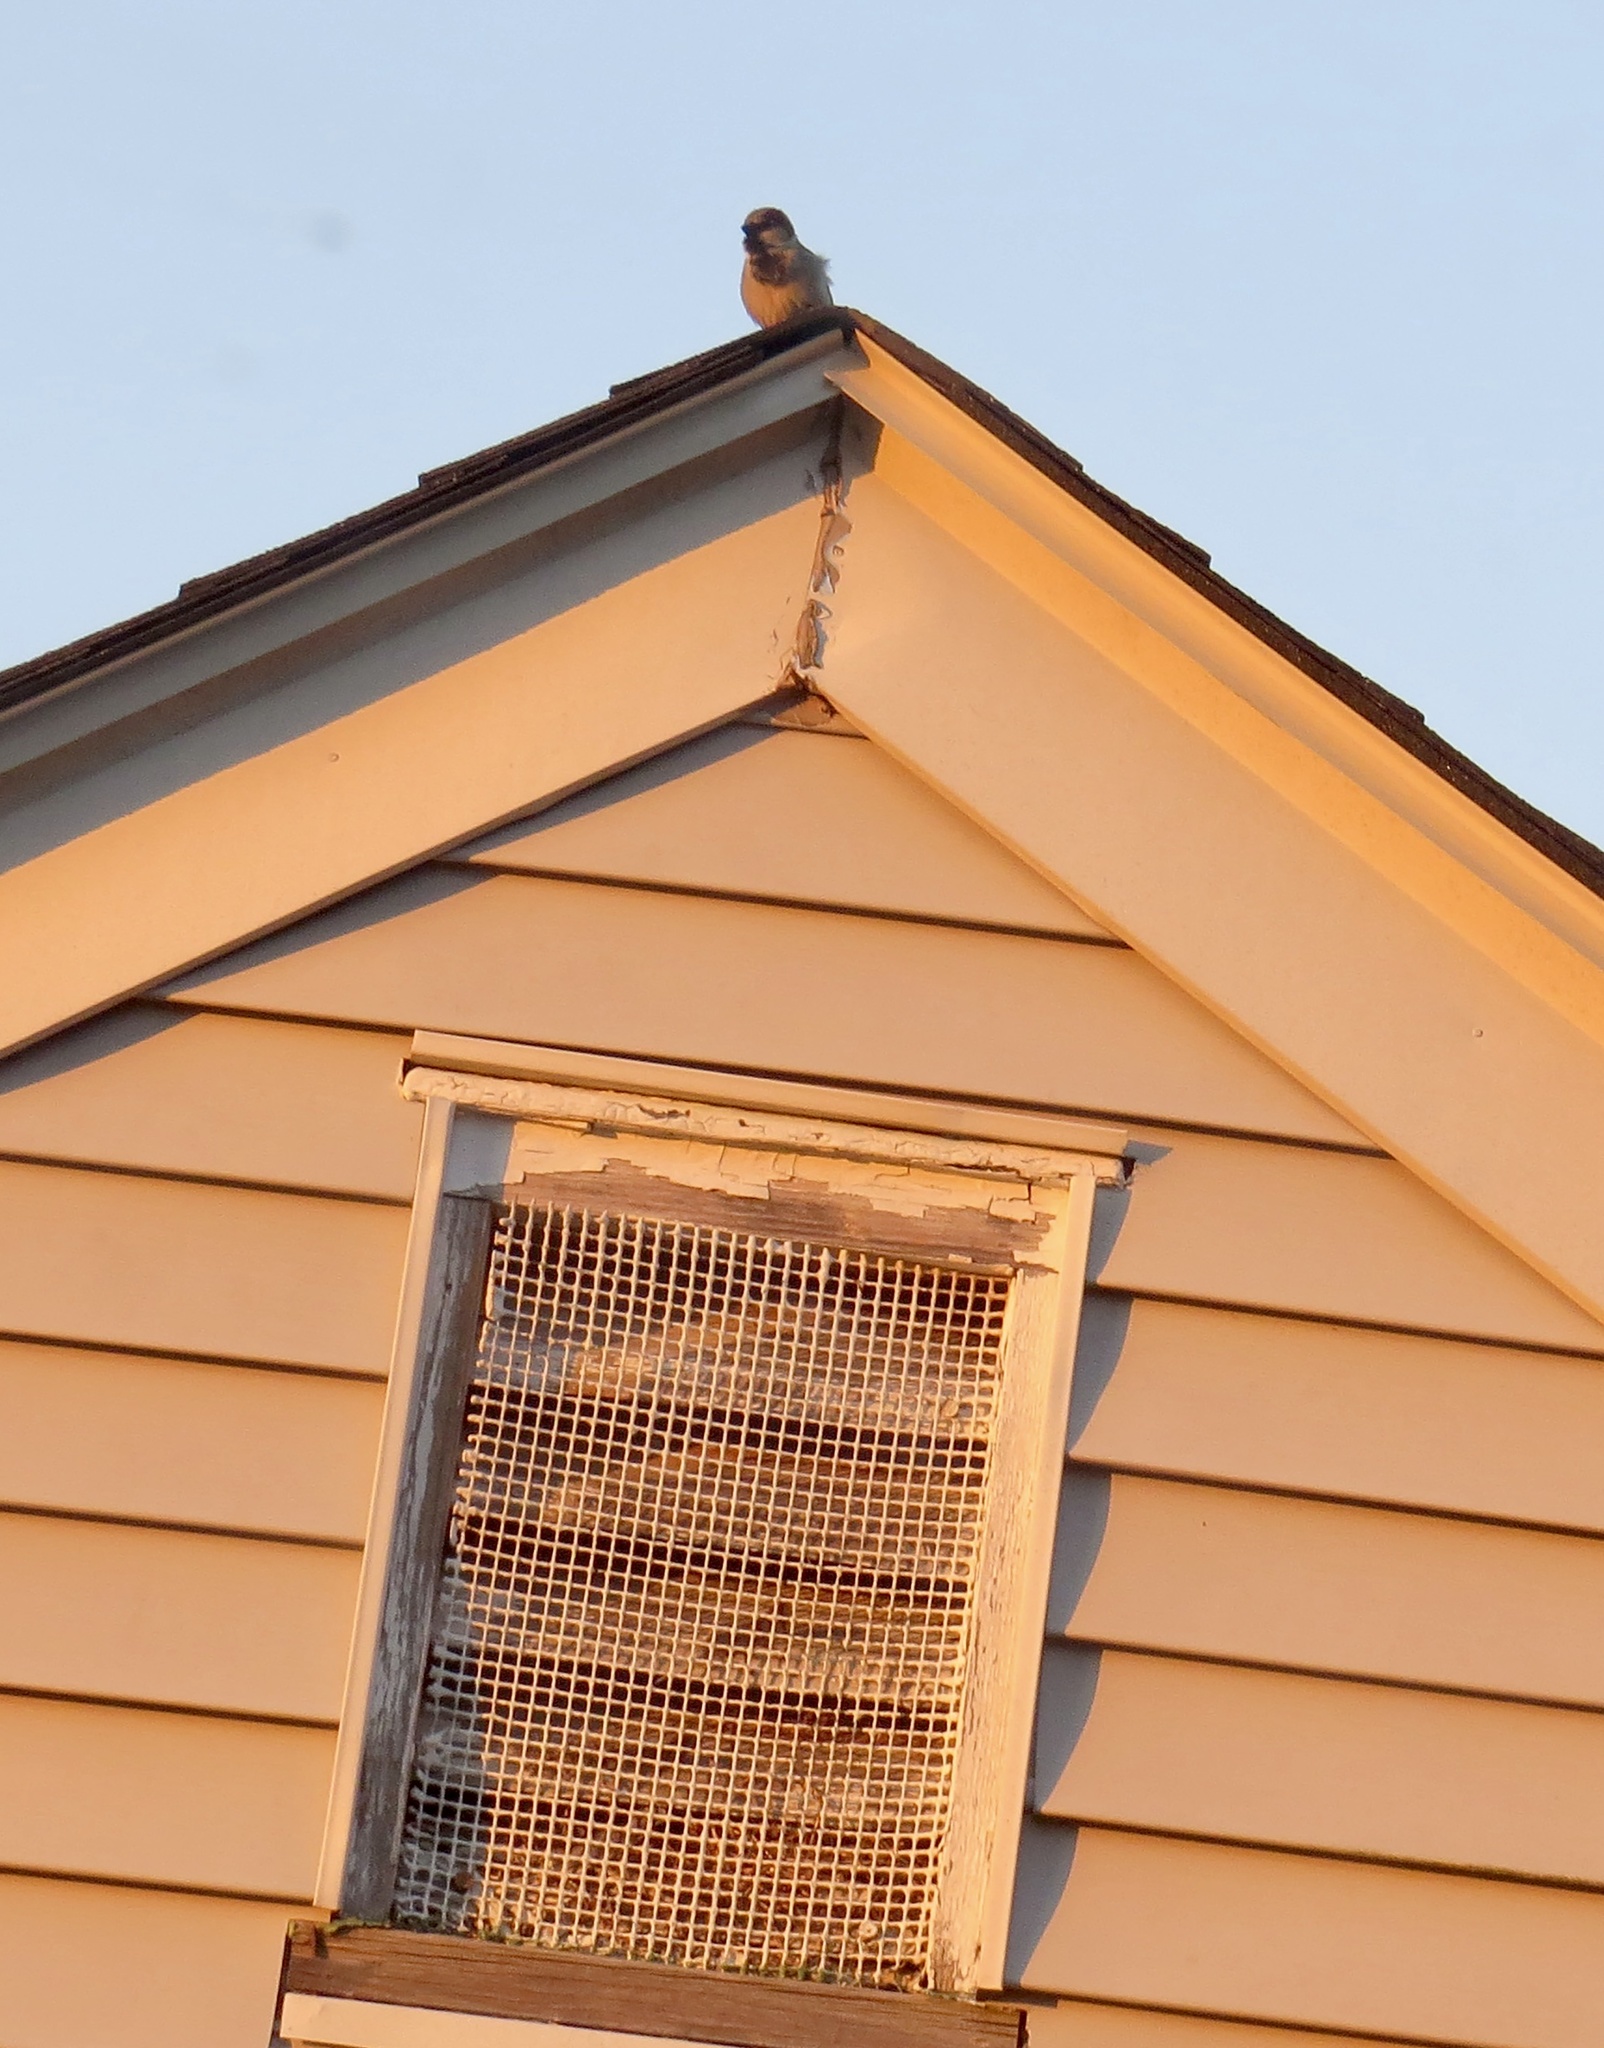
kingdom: Animalia
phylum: Chordata
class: Aves
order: Passeriformes
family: Passeridae
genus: Passer
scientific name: Passer domesticus
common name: House sparrow
